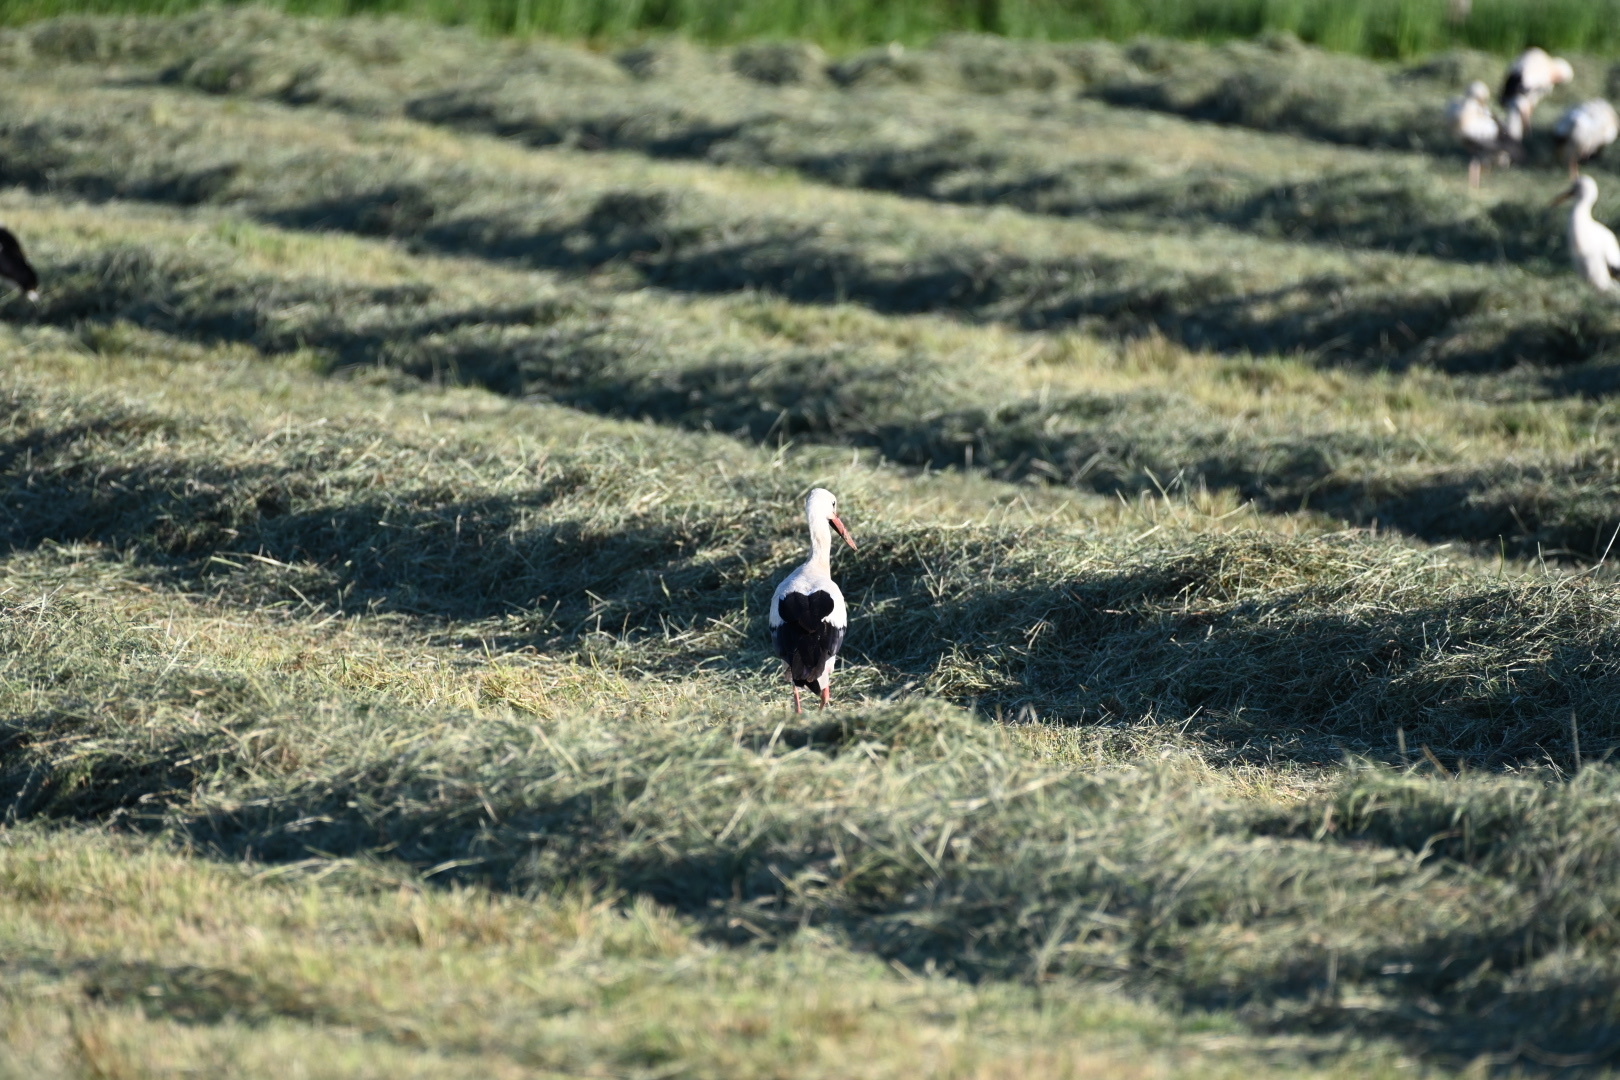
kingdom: Animalia
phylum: Chordata
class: Aves
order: Ciconiiformes
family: Ciconiidae
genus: Ciconia
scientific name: Ciconia ciconia
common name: White stork
